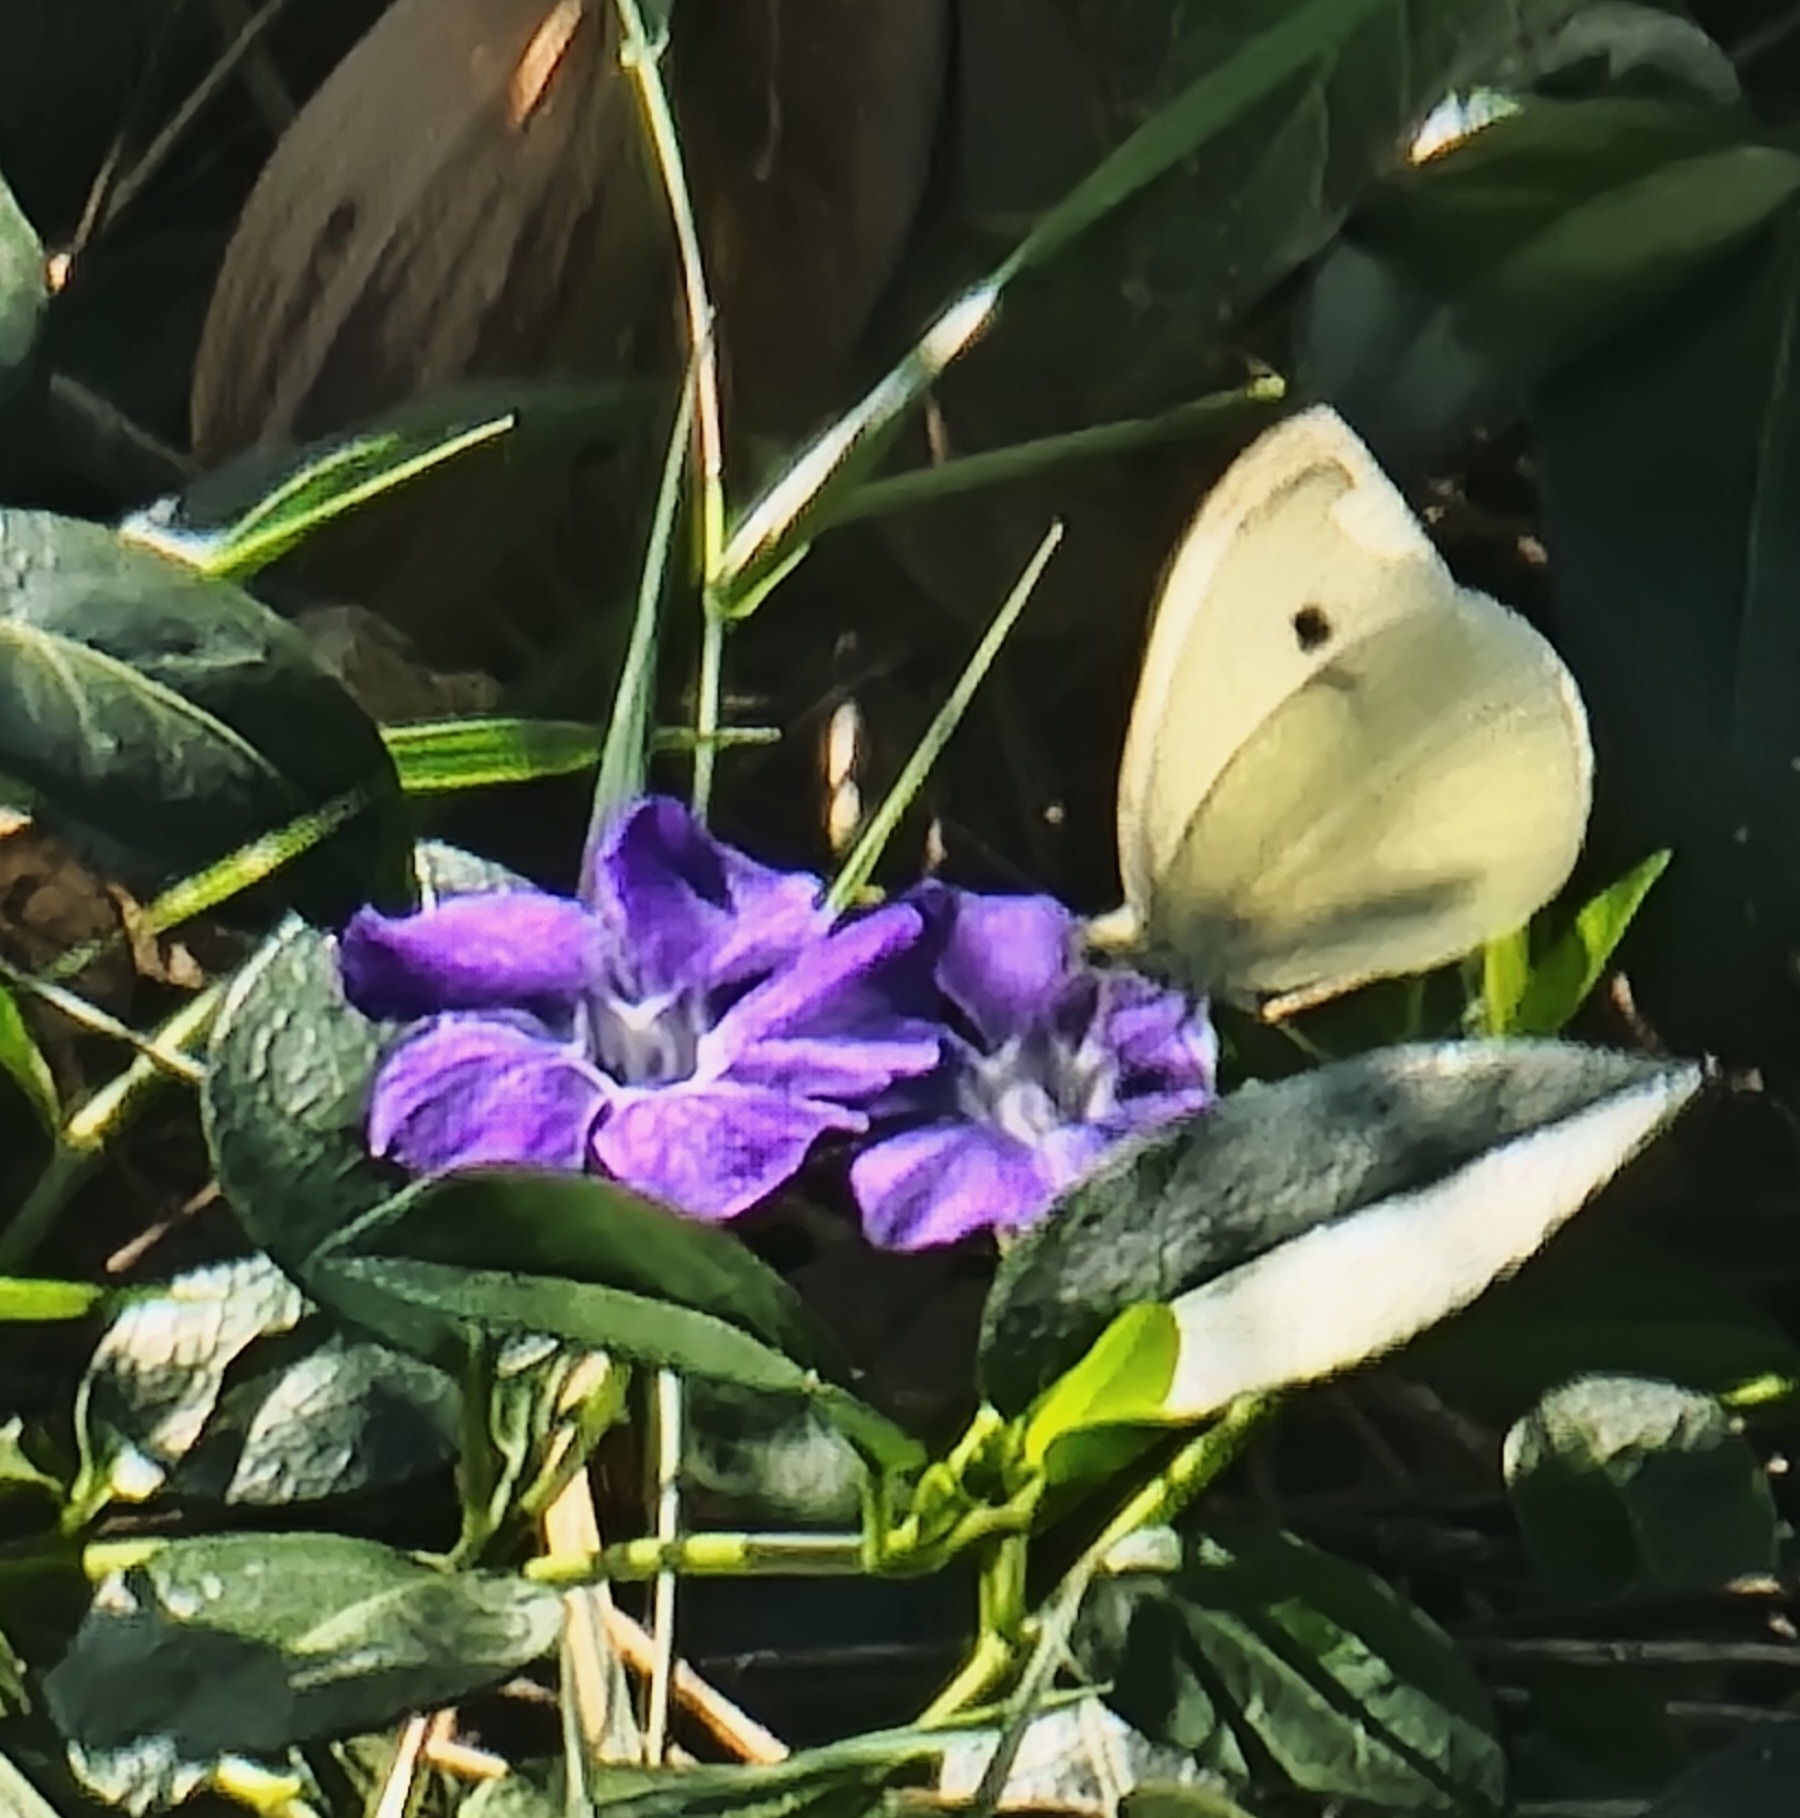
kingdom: Animalia
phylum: Arthropoda
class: Insecta
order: Lepidoptera
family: Pieridae
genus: Pieris
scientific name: Pieris rapae
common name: Small white
